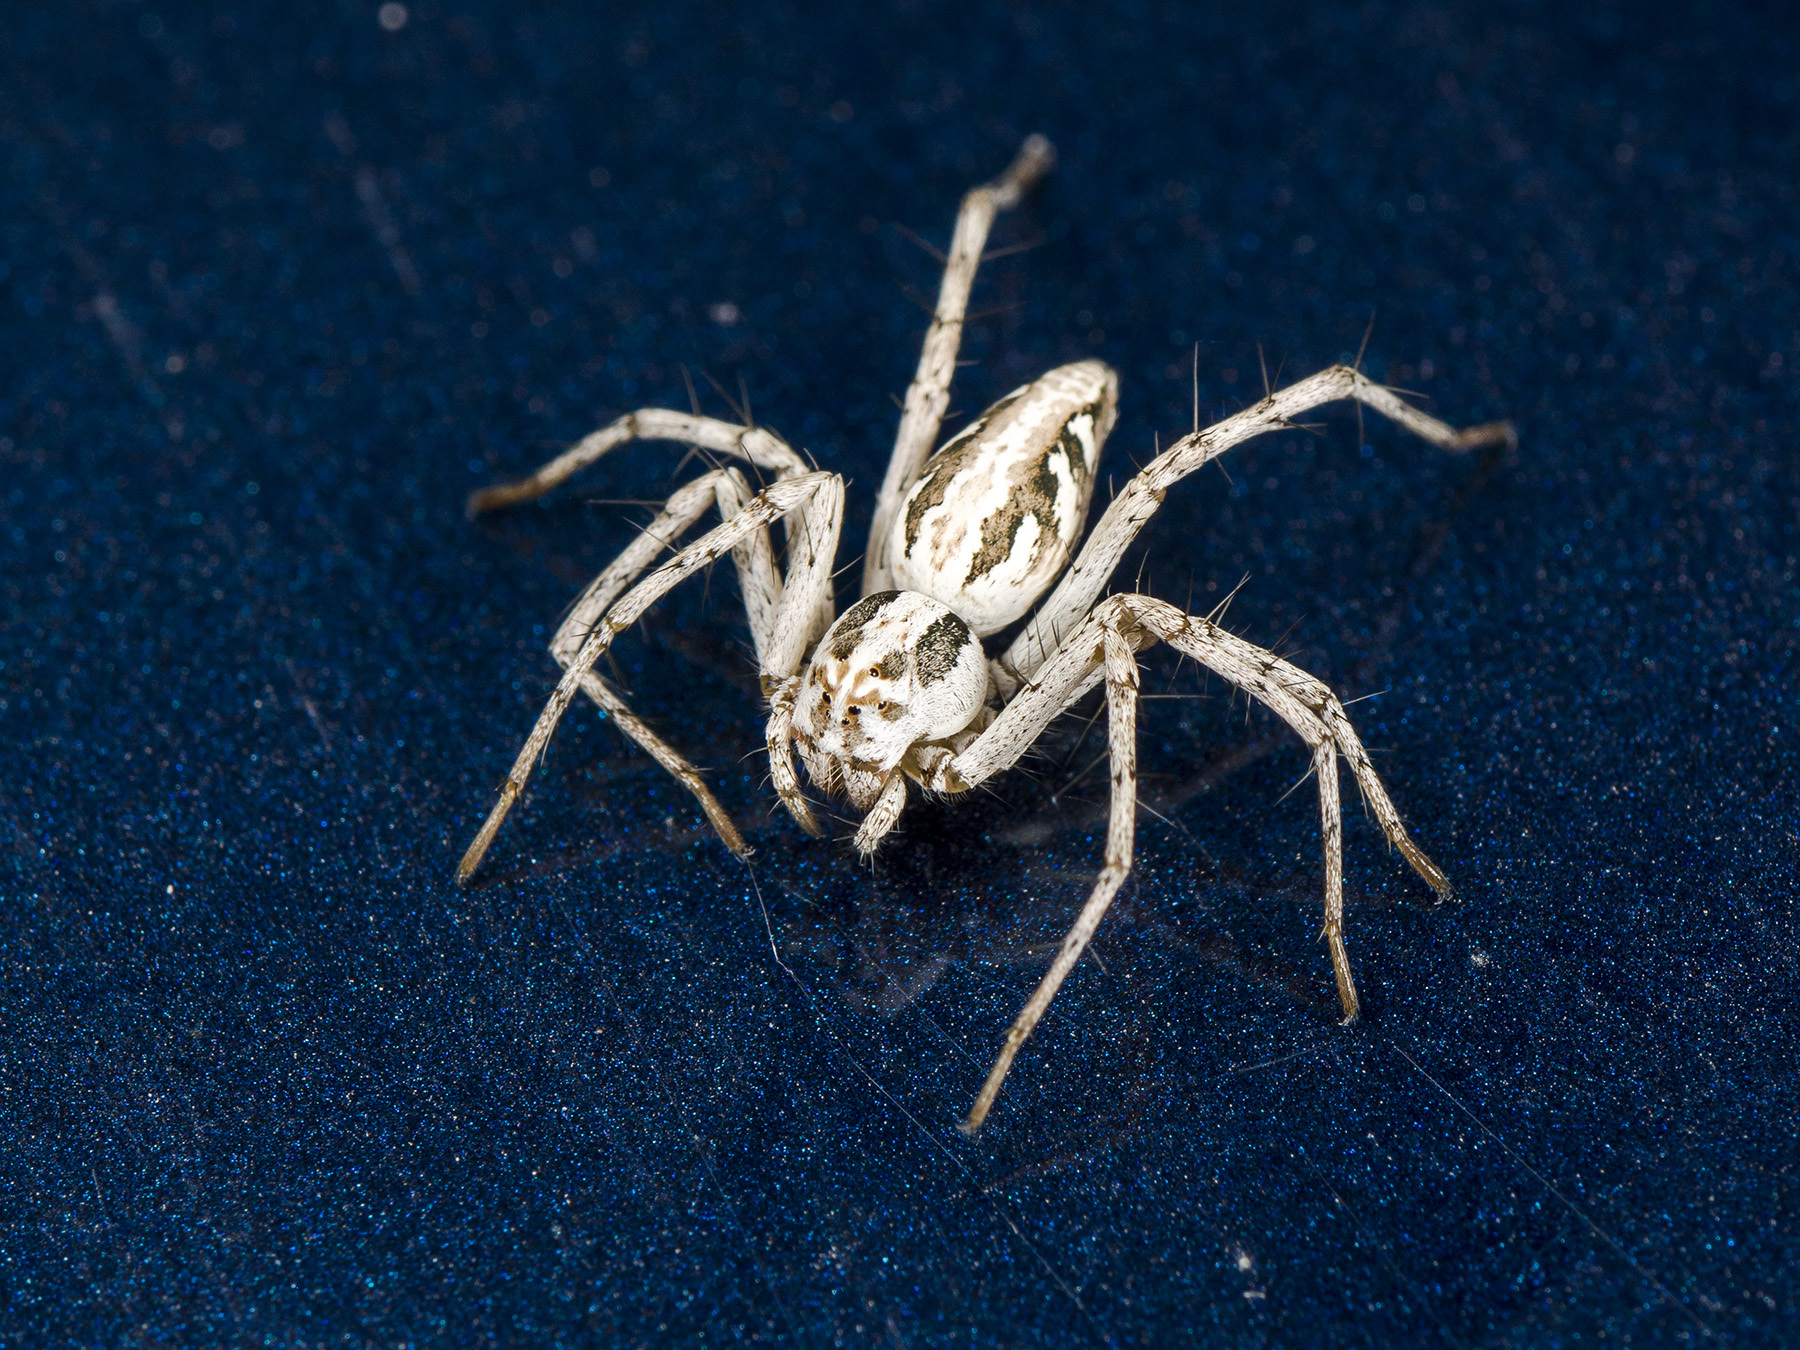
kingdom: Animalia
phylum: Arthropoda
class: Arachnida
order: Araneae
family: Oxyopidae
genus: Oxyopes
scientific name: Oxyopes globifer
